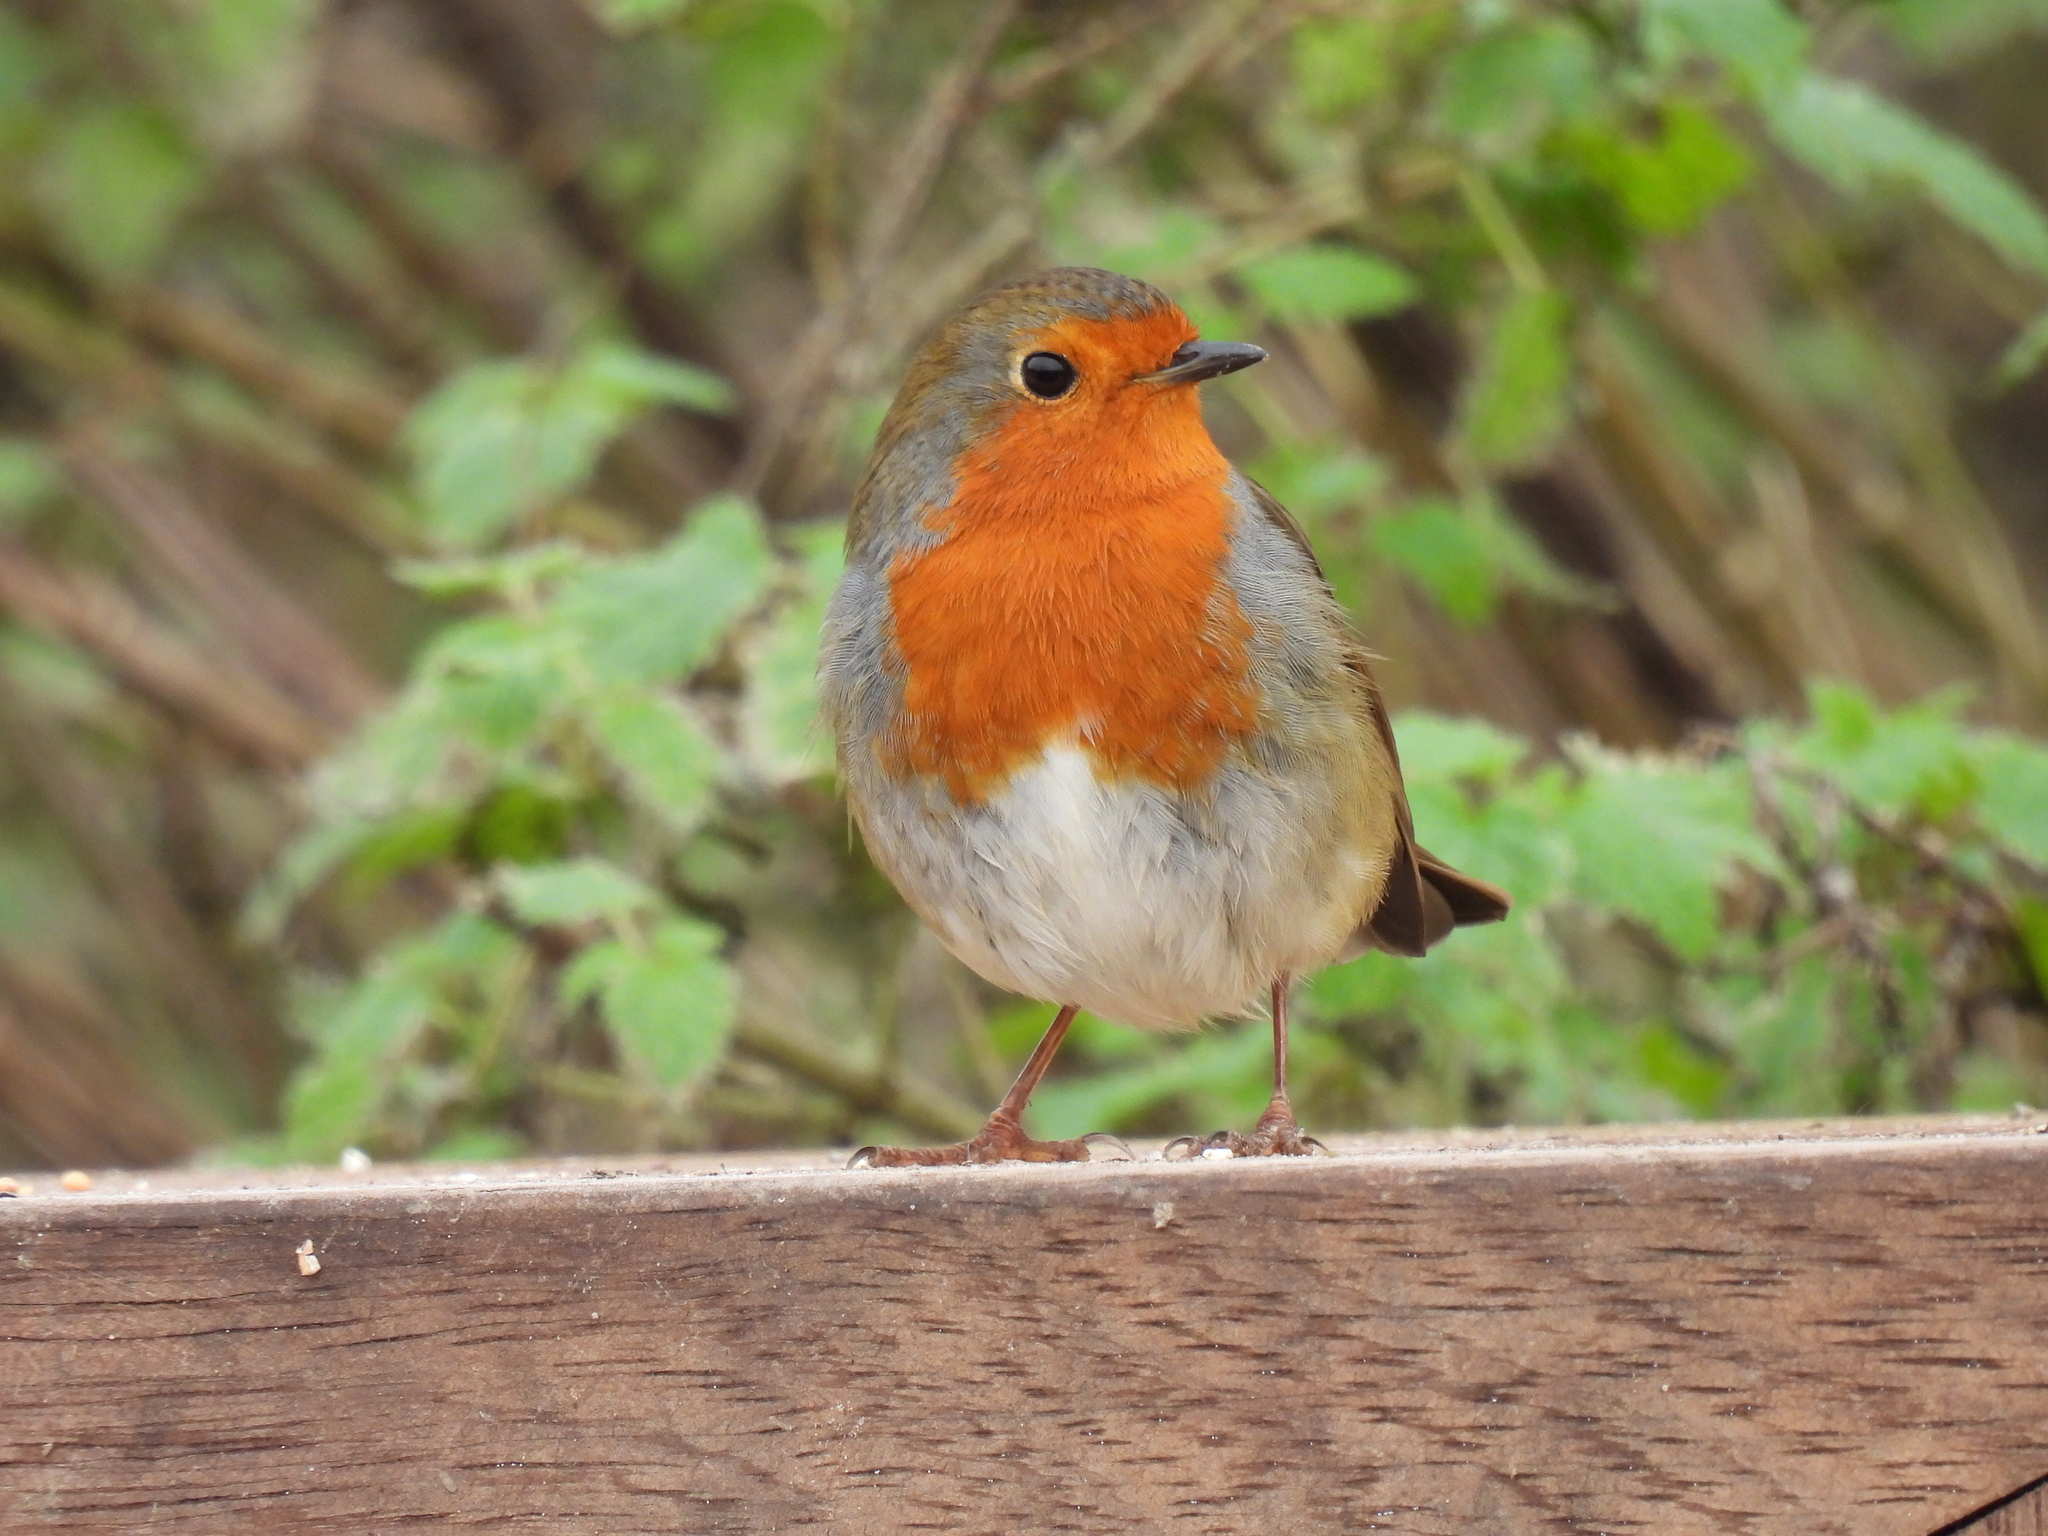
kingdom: Animalia
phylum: Chordata
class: Aves
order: Passeriformes
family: Muscicapidae
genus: Erithacus
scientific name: Erithacus rubecula
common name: European robin
